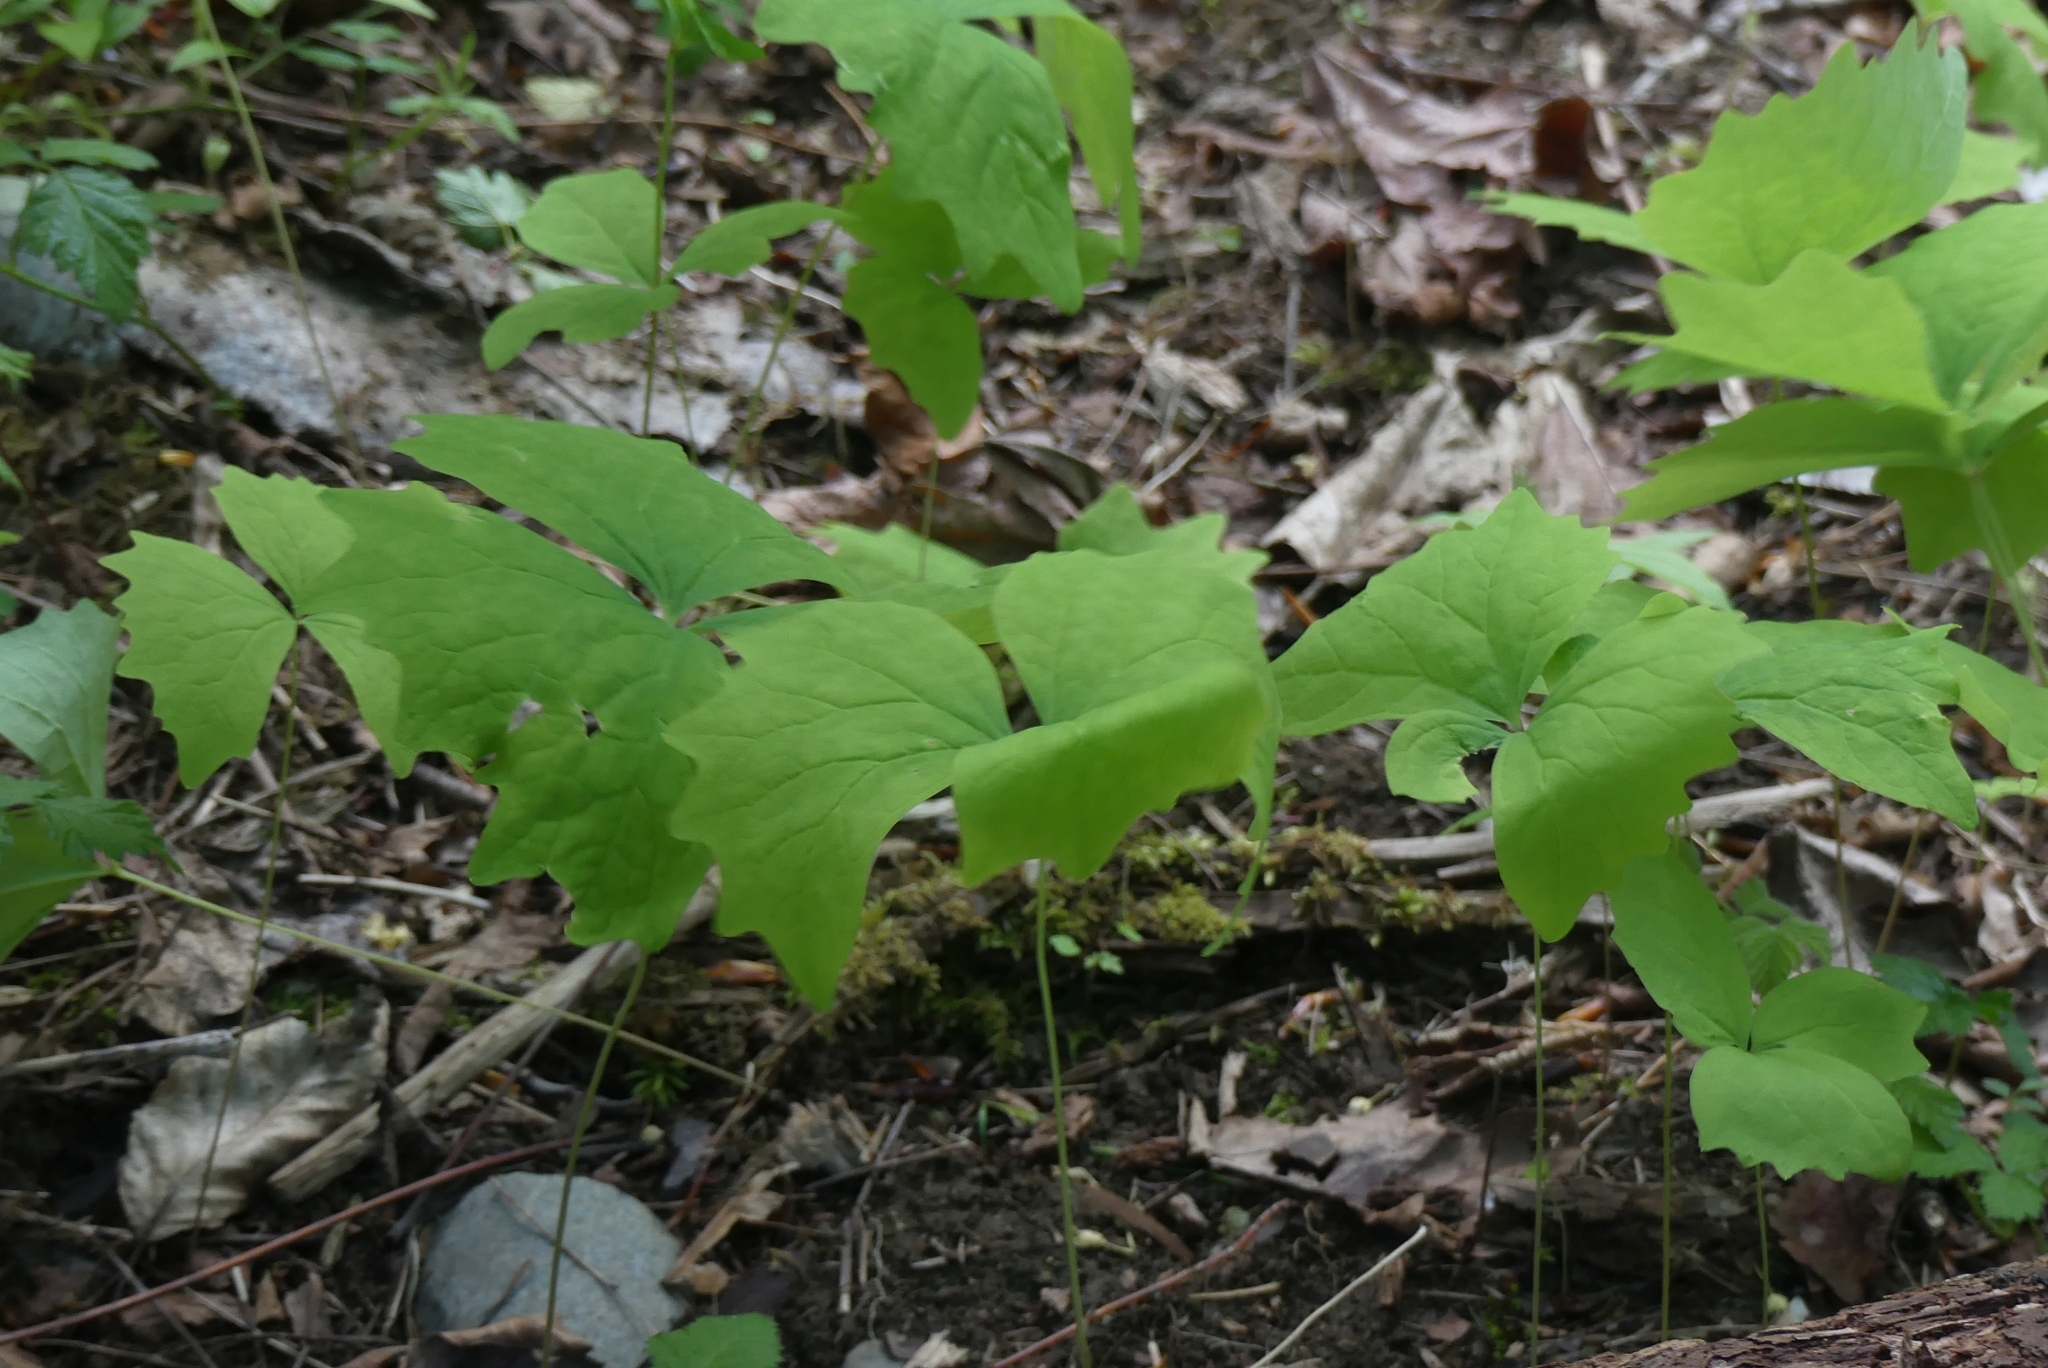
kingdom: Plantae
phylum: Tracheophyta
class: Magnoliopsida
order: Ranunculales
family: Berberidaceae
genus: Achlys
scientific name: Achlys triphylla
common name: Vanilla-leaf
